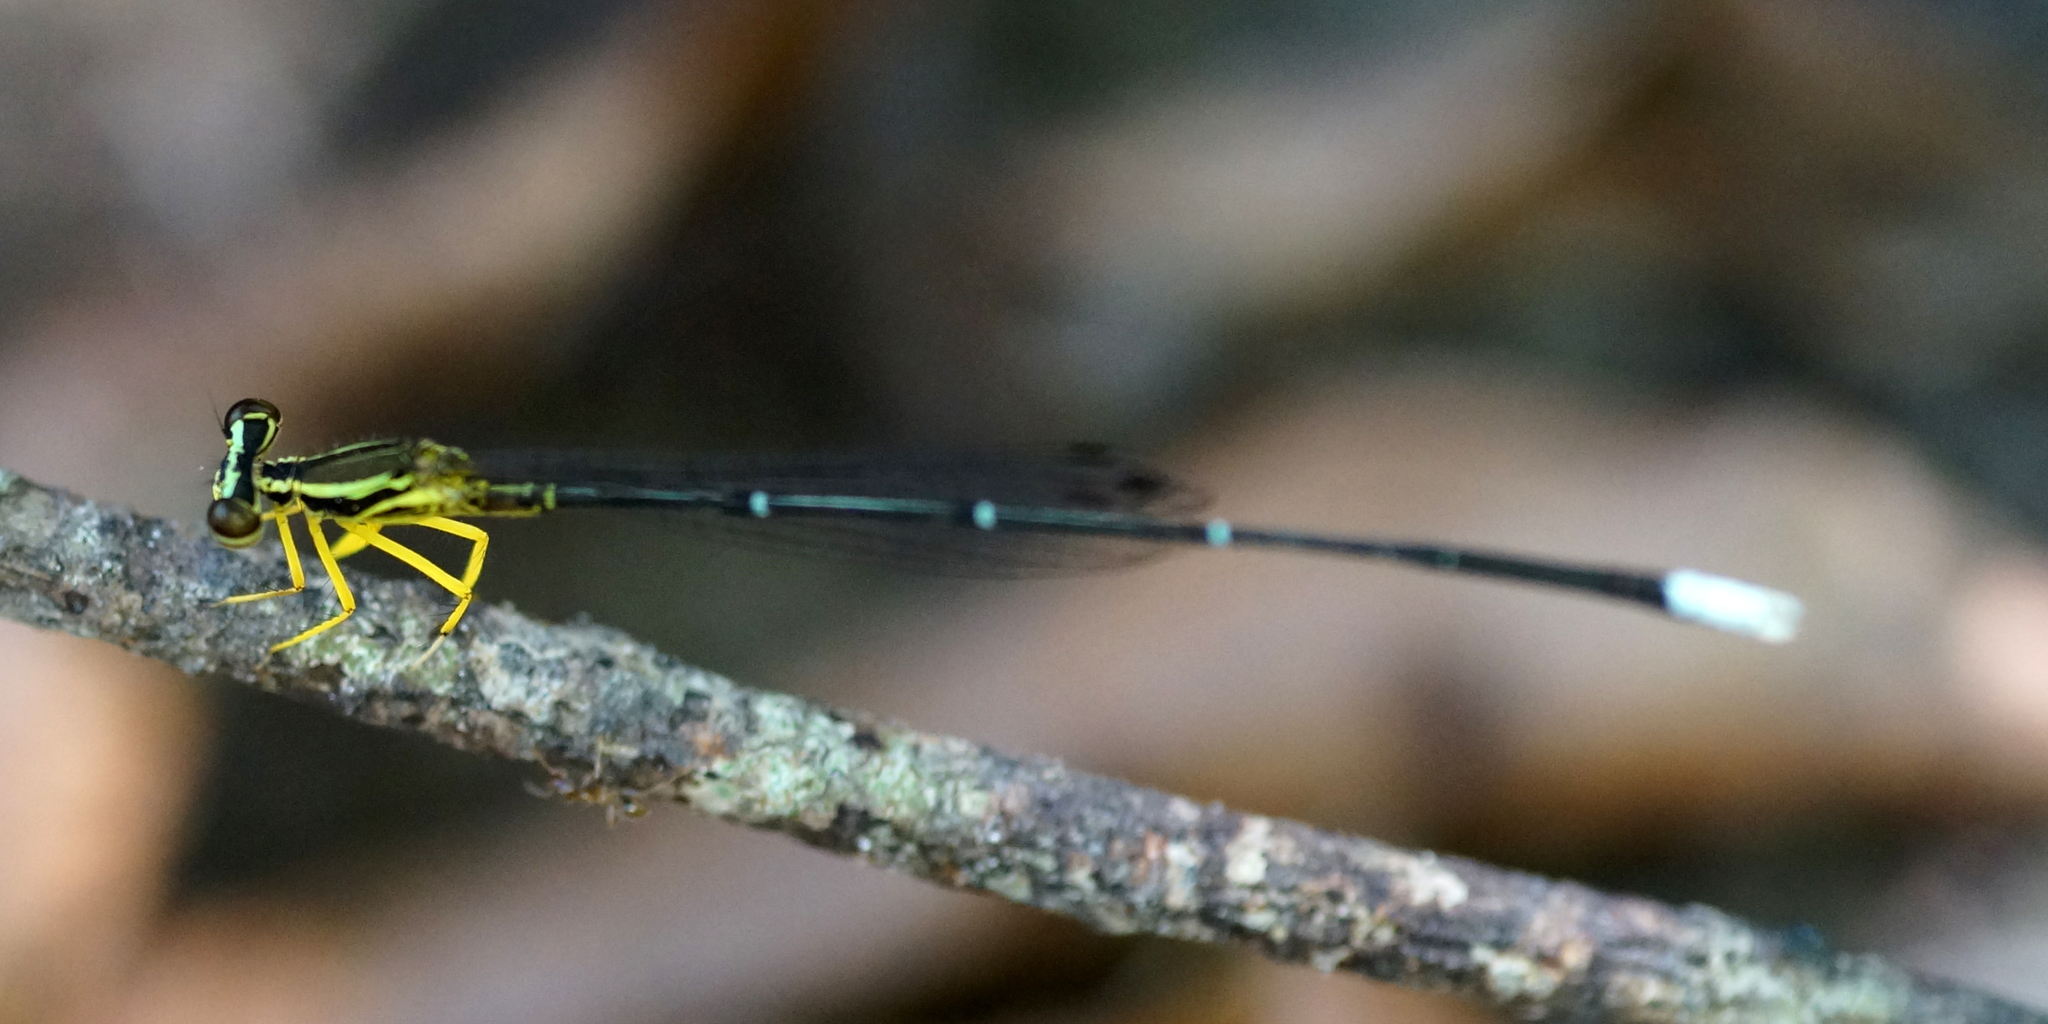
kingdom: Animalia
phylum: Arthropoda
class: Insecta
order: Odonata
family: Platycnemididae
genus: Copera
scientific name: Copera marginipes
